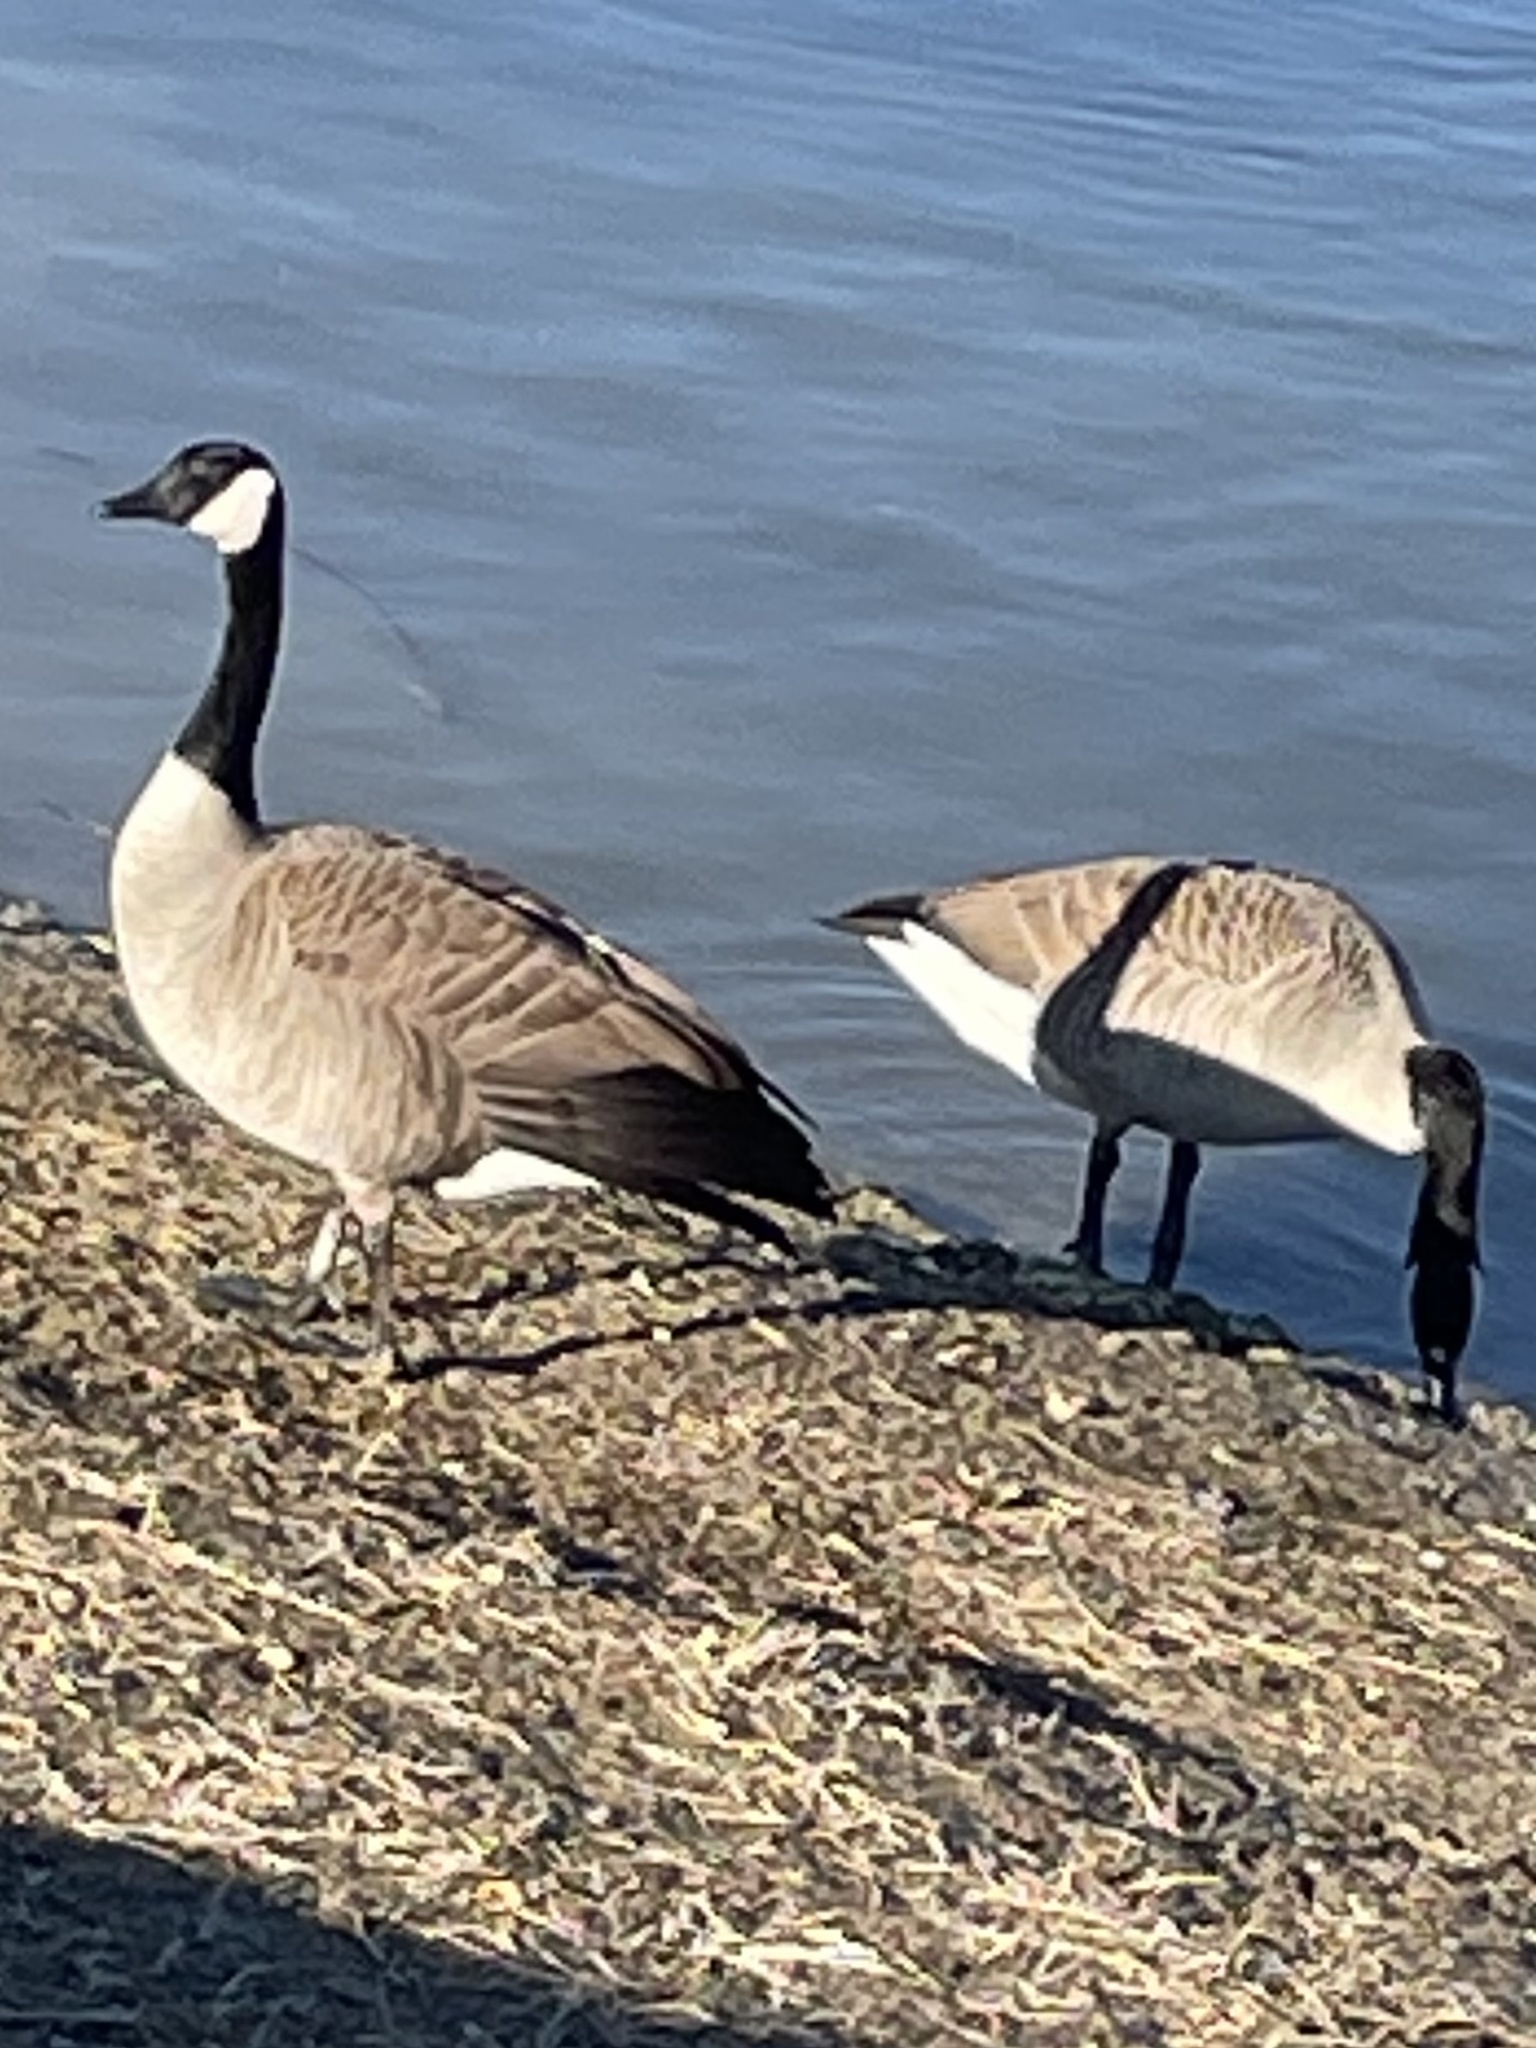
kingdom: Animalia
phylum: Chordata
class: Aves
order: Anseriformes
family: Anatidae
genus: Branta
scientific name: Branta canadensis
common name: Canada goose
